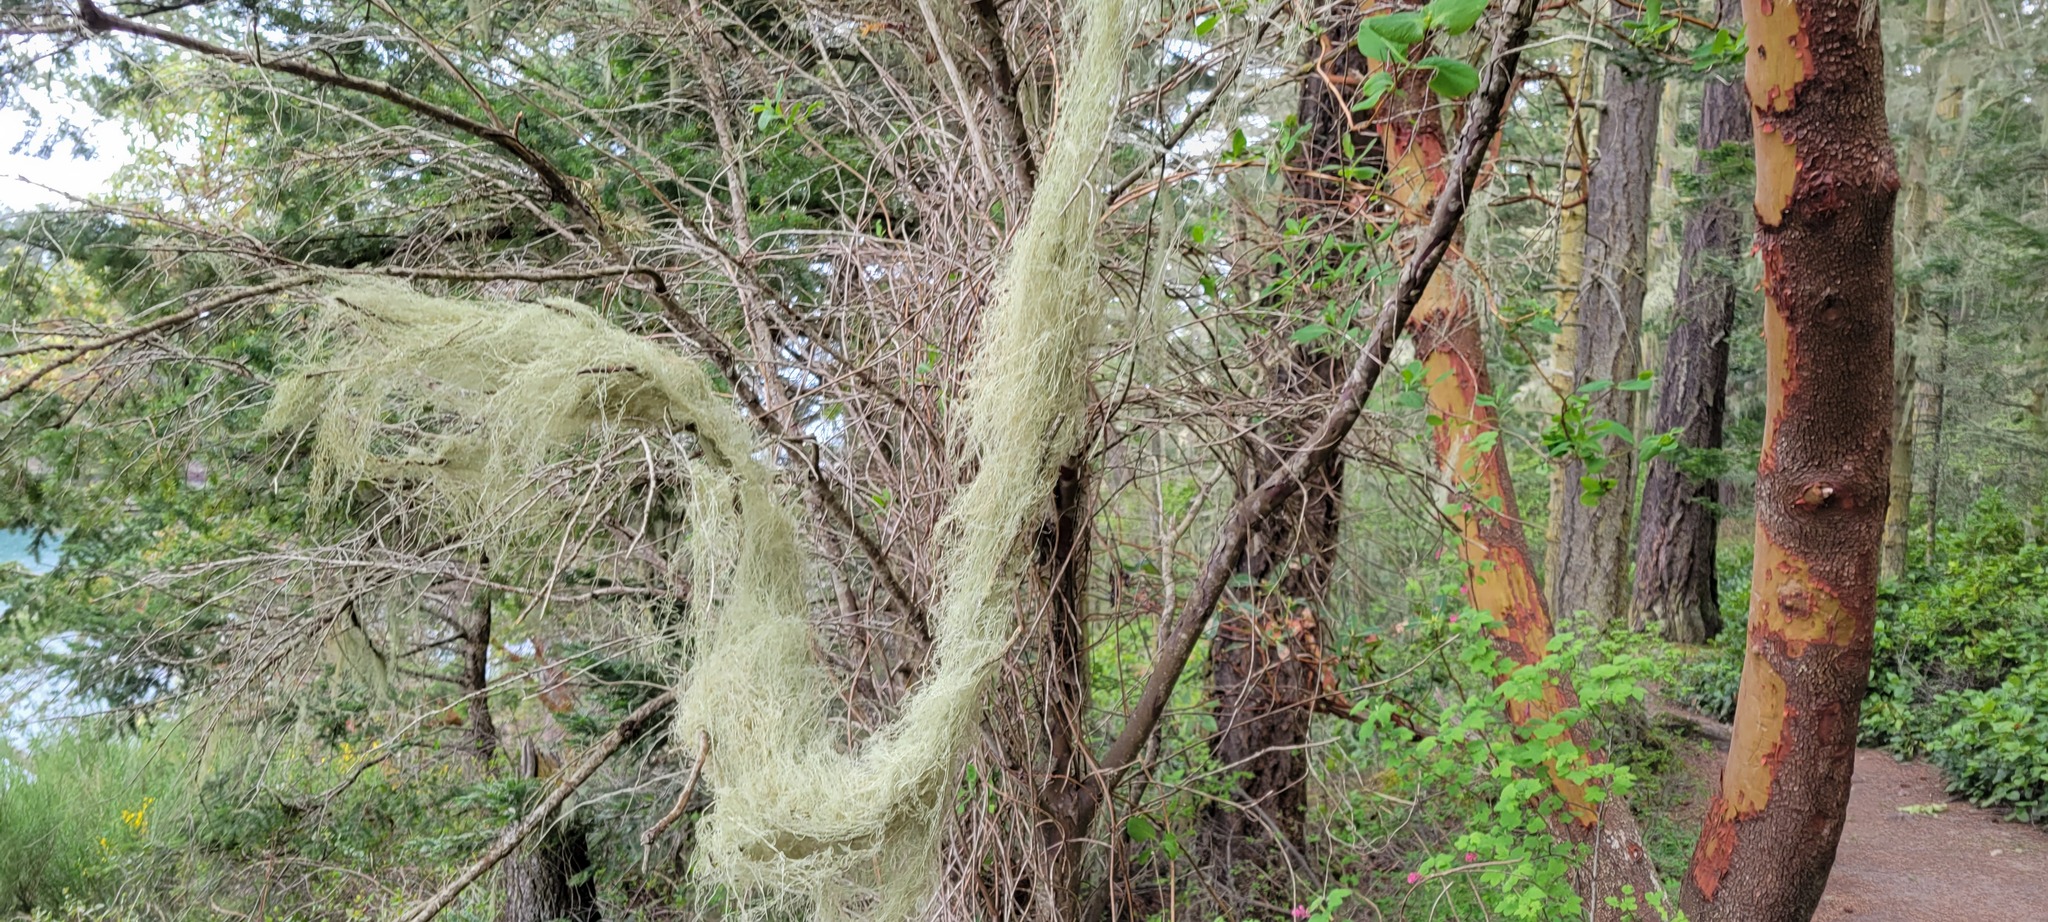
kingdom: Fungi
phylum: Ascomycota
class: Lecanoromycetes
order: Lecanorales
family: Ramalinaceae
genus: Ramalina
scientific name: Ramalina menziesii
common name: Lace lichen
